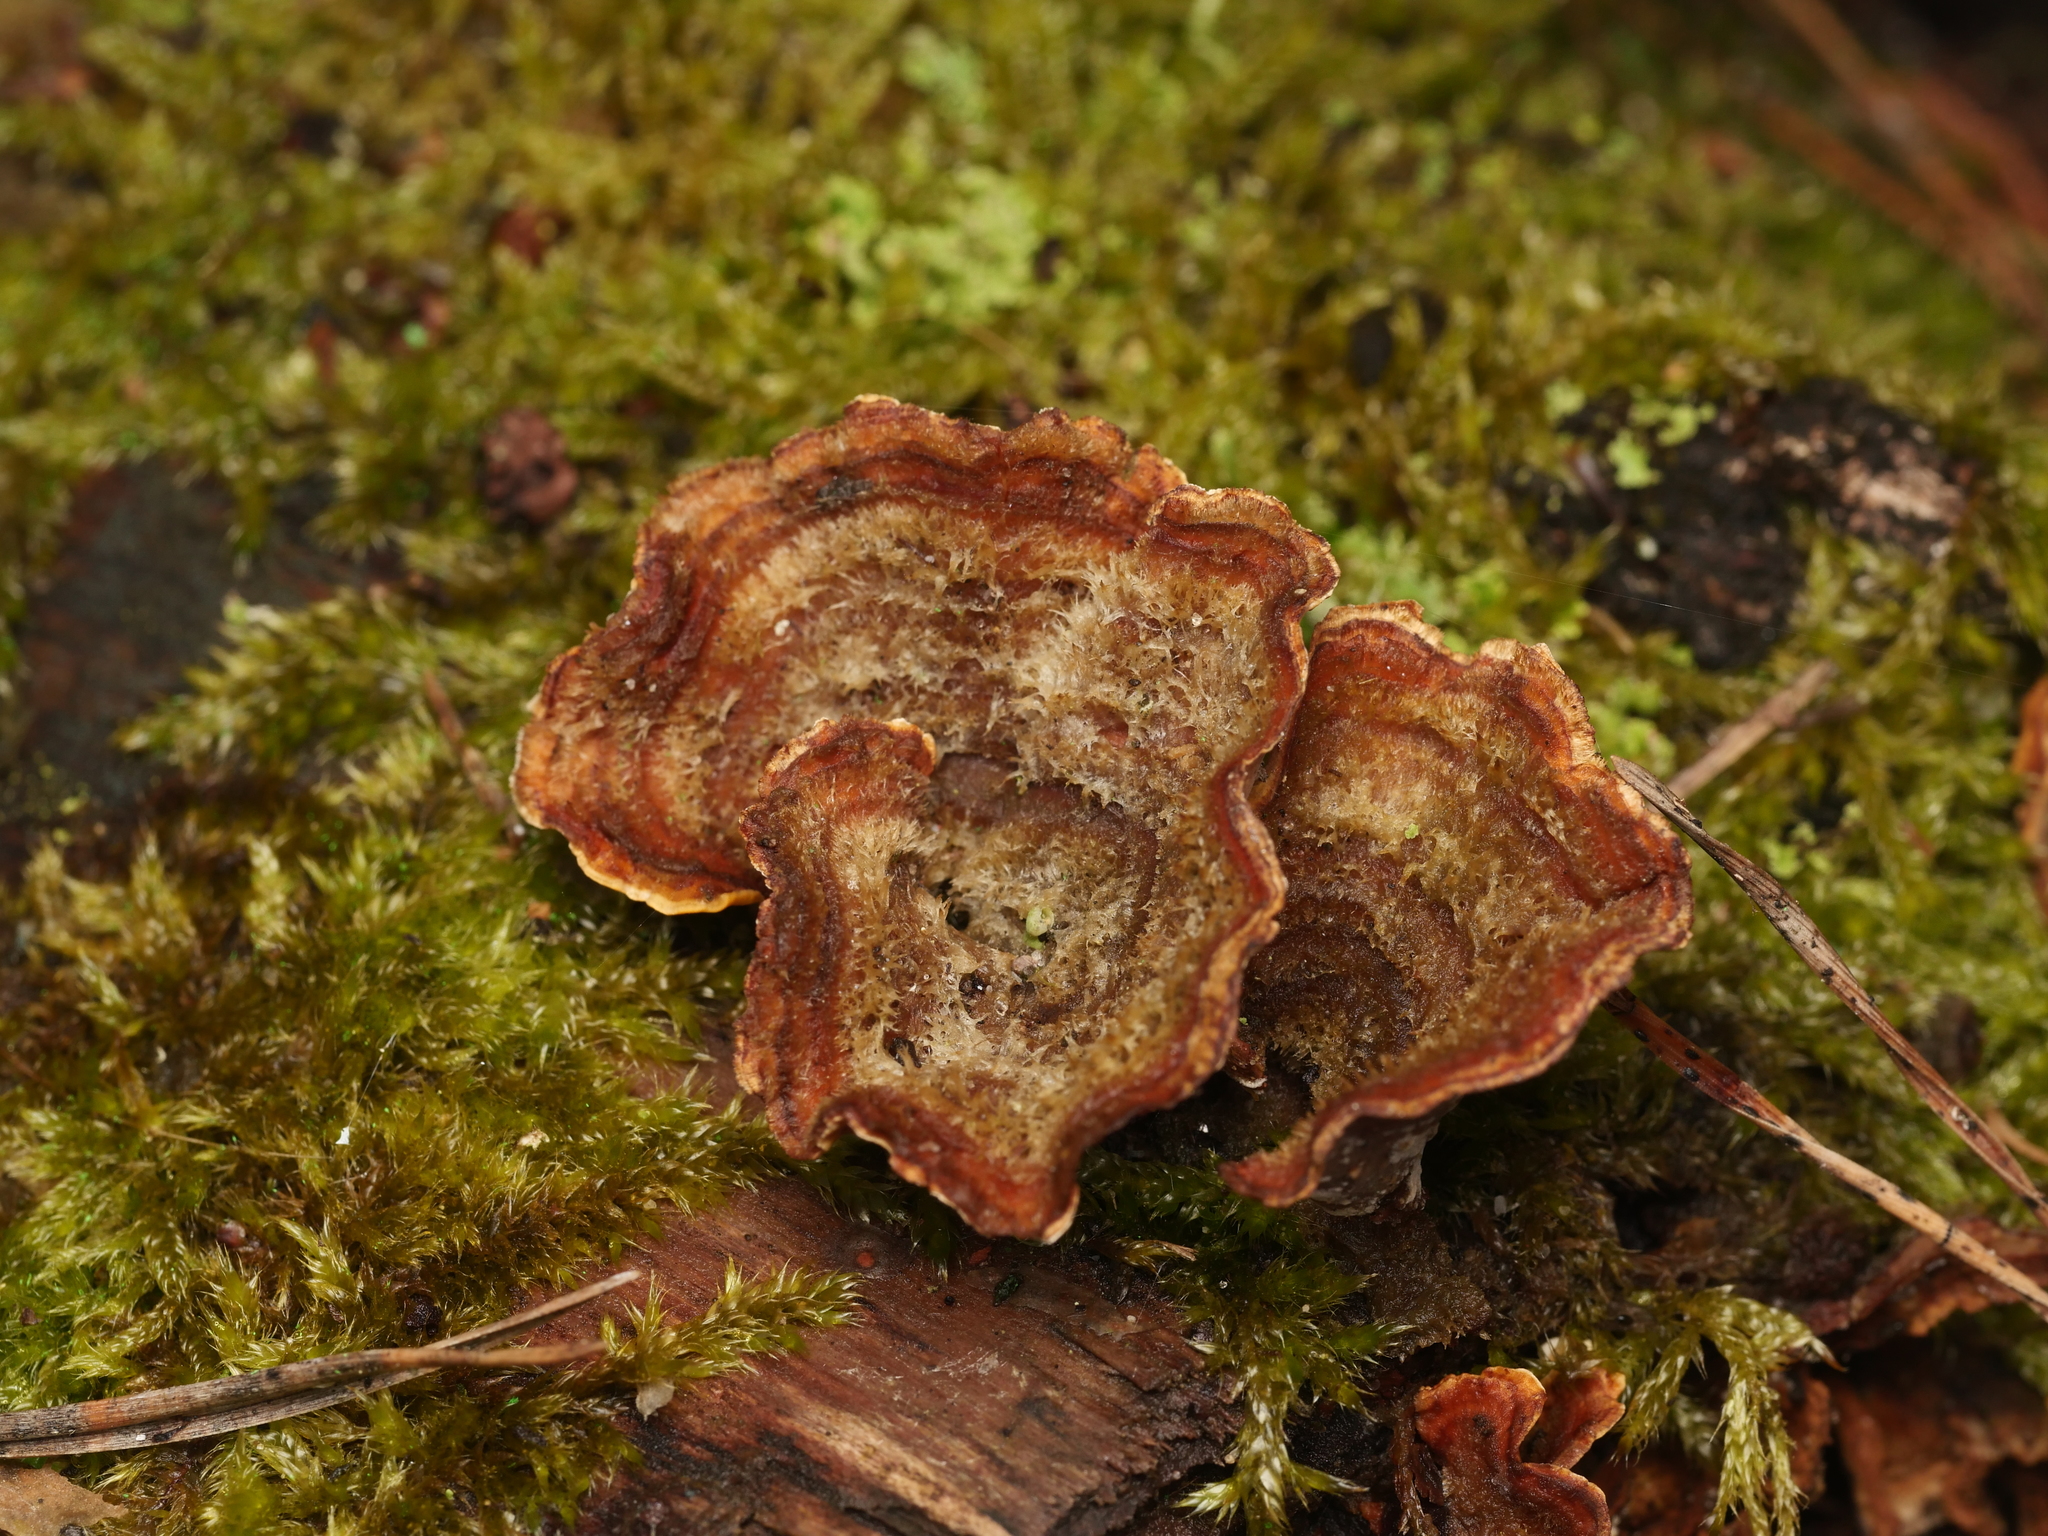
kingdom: Fungi
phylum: Basidiomycota
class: Agaricomycetes
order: Russulales
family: Stereaceae
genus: Stereum
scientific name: Stereum hirsutum
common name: Hairy curtain crust
